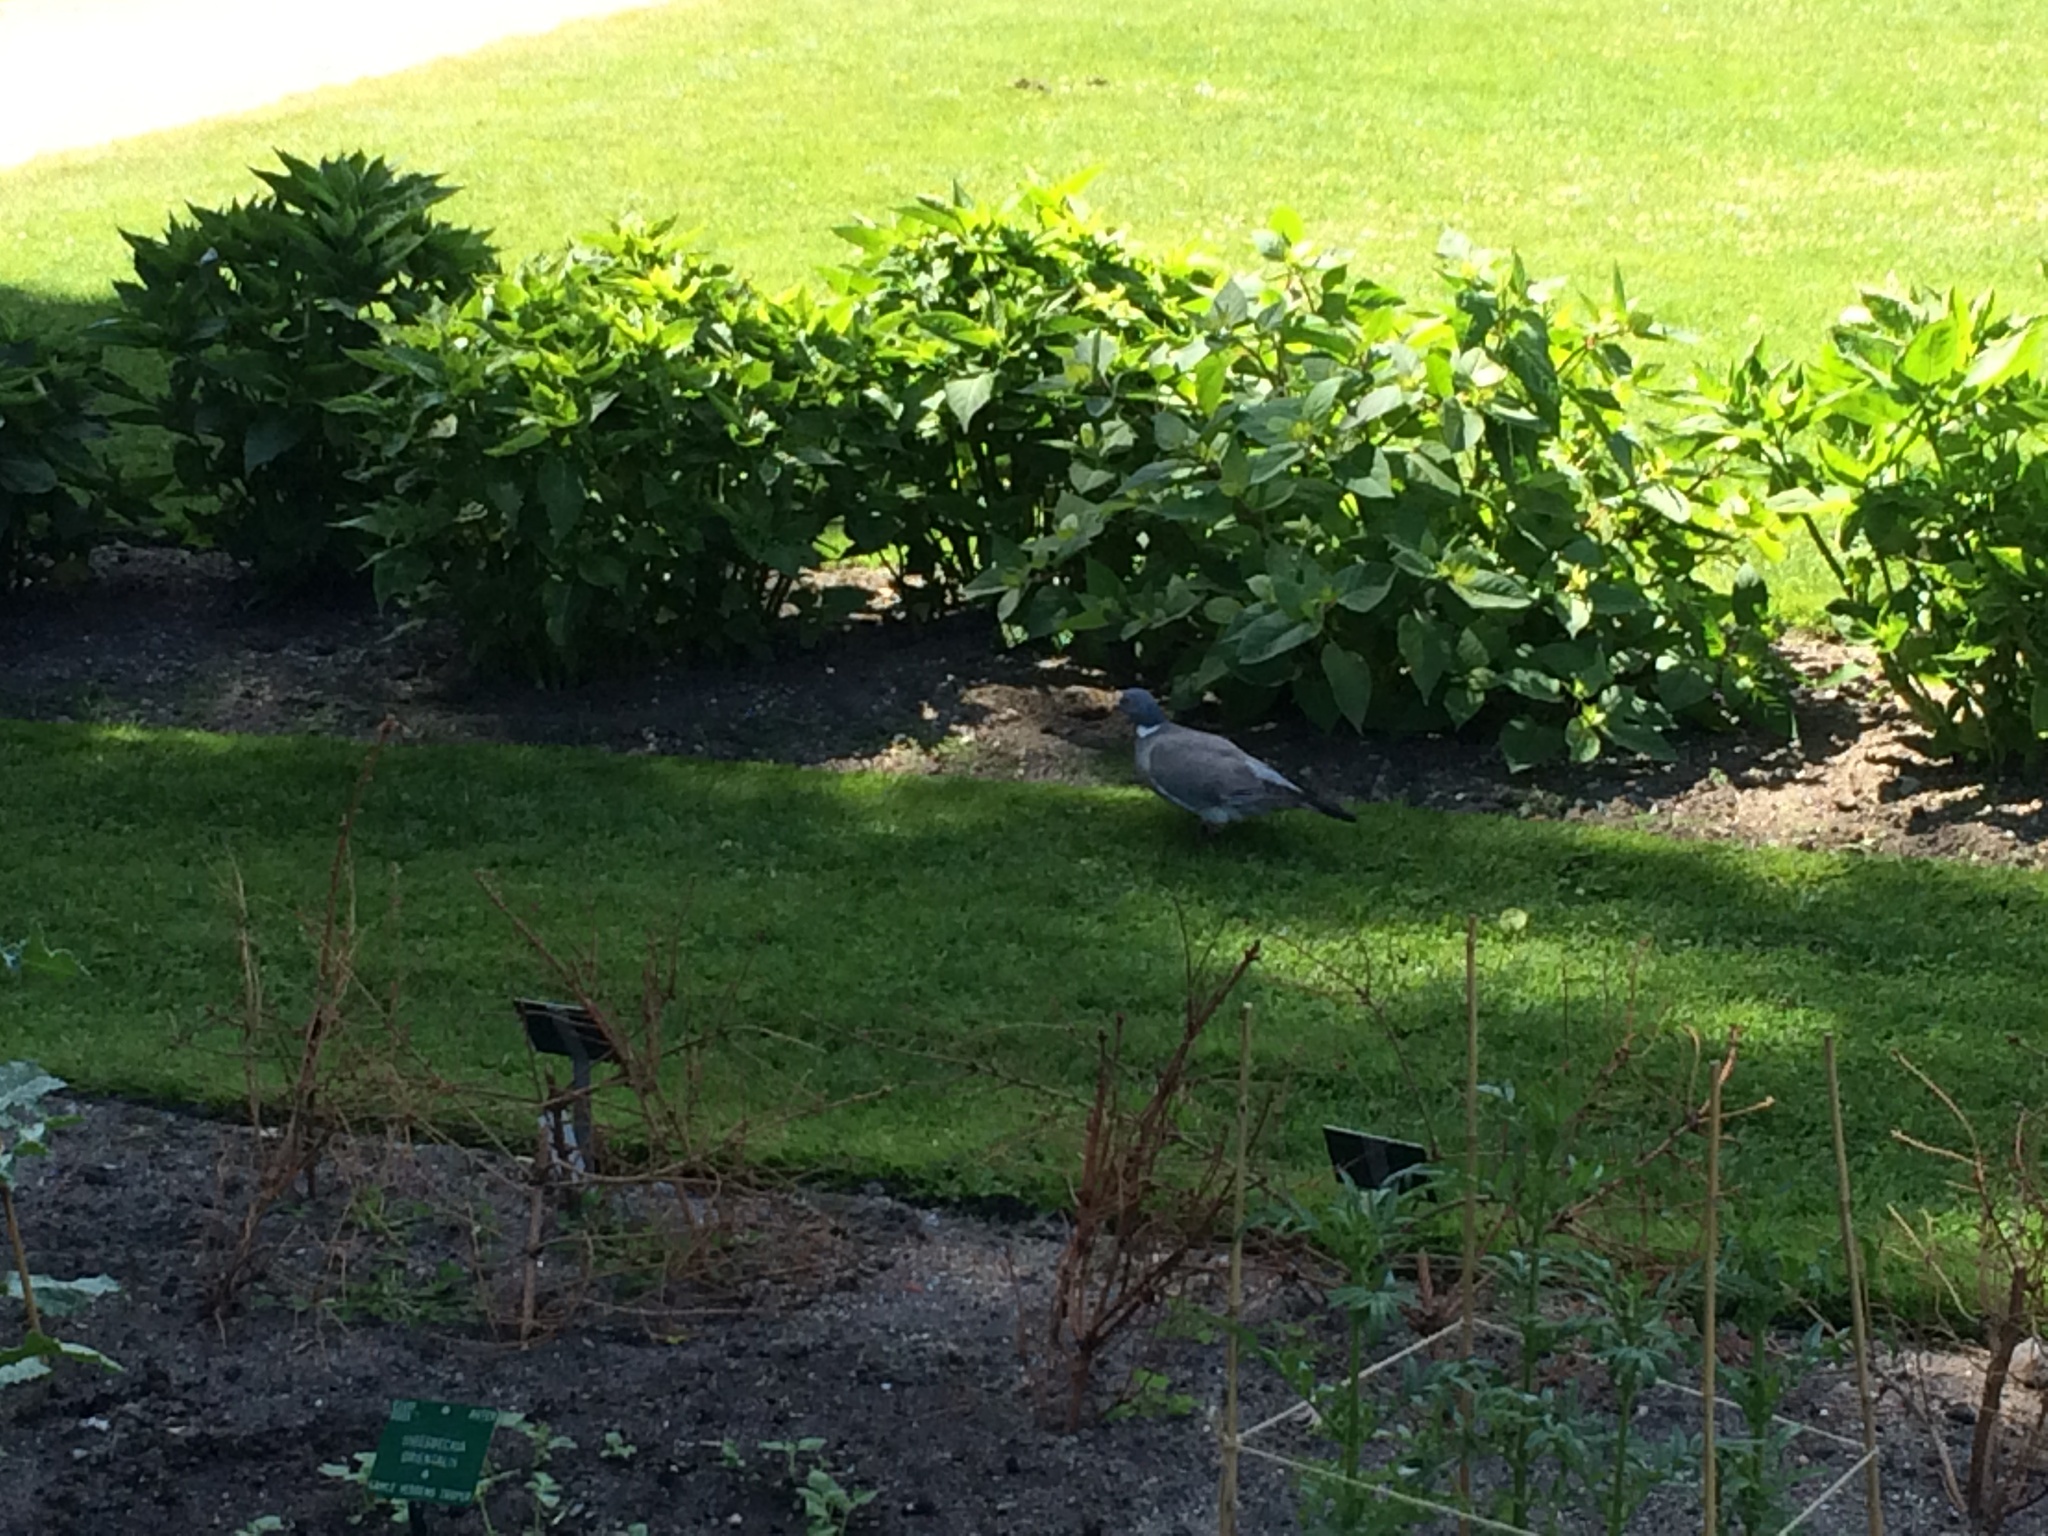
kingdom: Animalia
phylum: Chordata
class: Aves
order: Columbiformes
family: Columbidae
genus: Columba
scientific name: Columba palumbus
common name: Common wood pigeon
